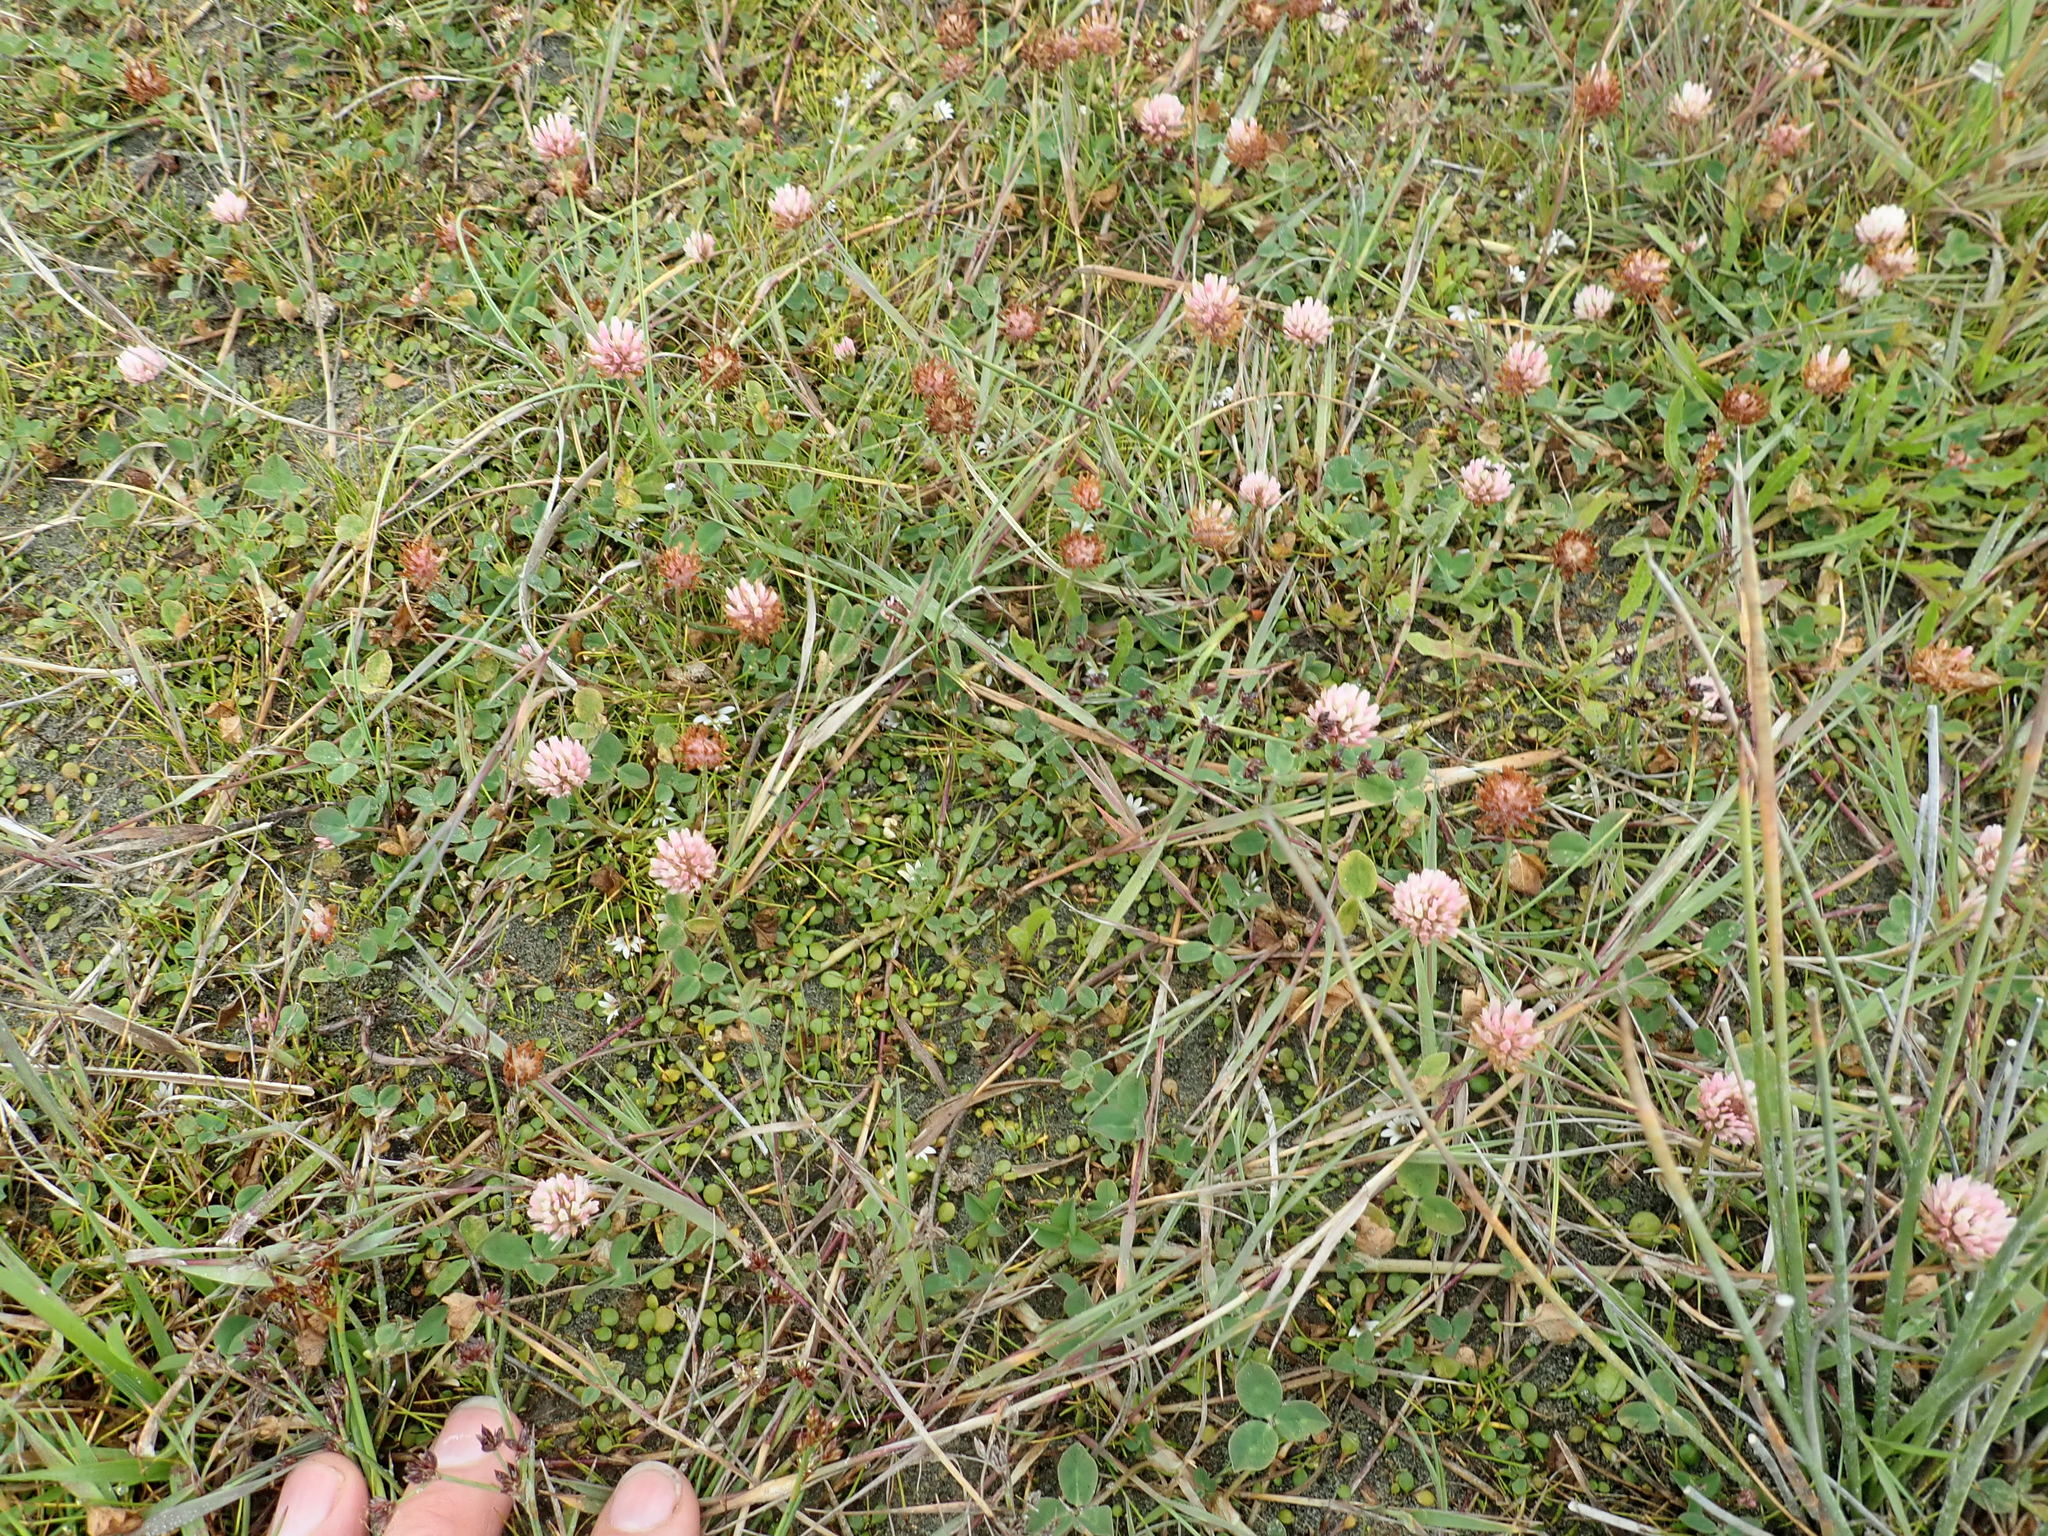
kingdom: Plantae
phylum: Tracheophyta
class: Magnoliopsida
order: Fabales
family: Fabaceae
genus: Trifolium
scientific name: Trifolium fragiferum
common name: Strawberry clover
